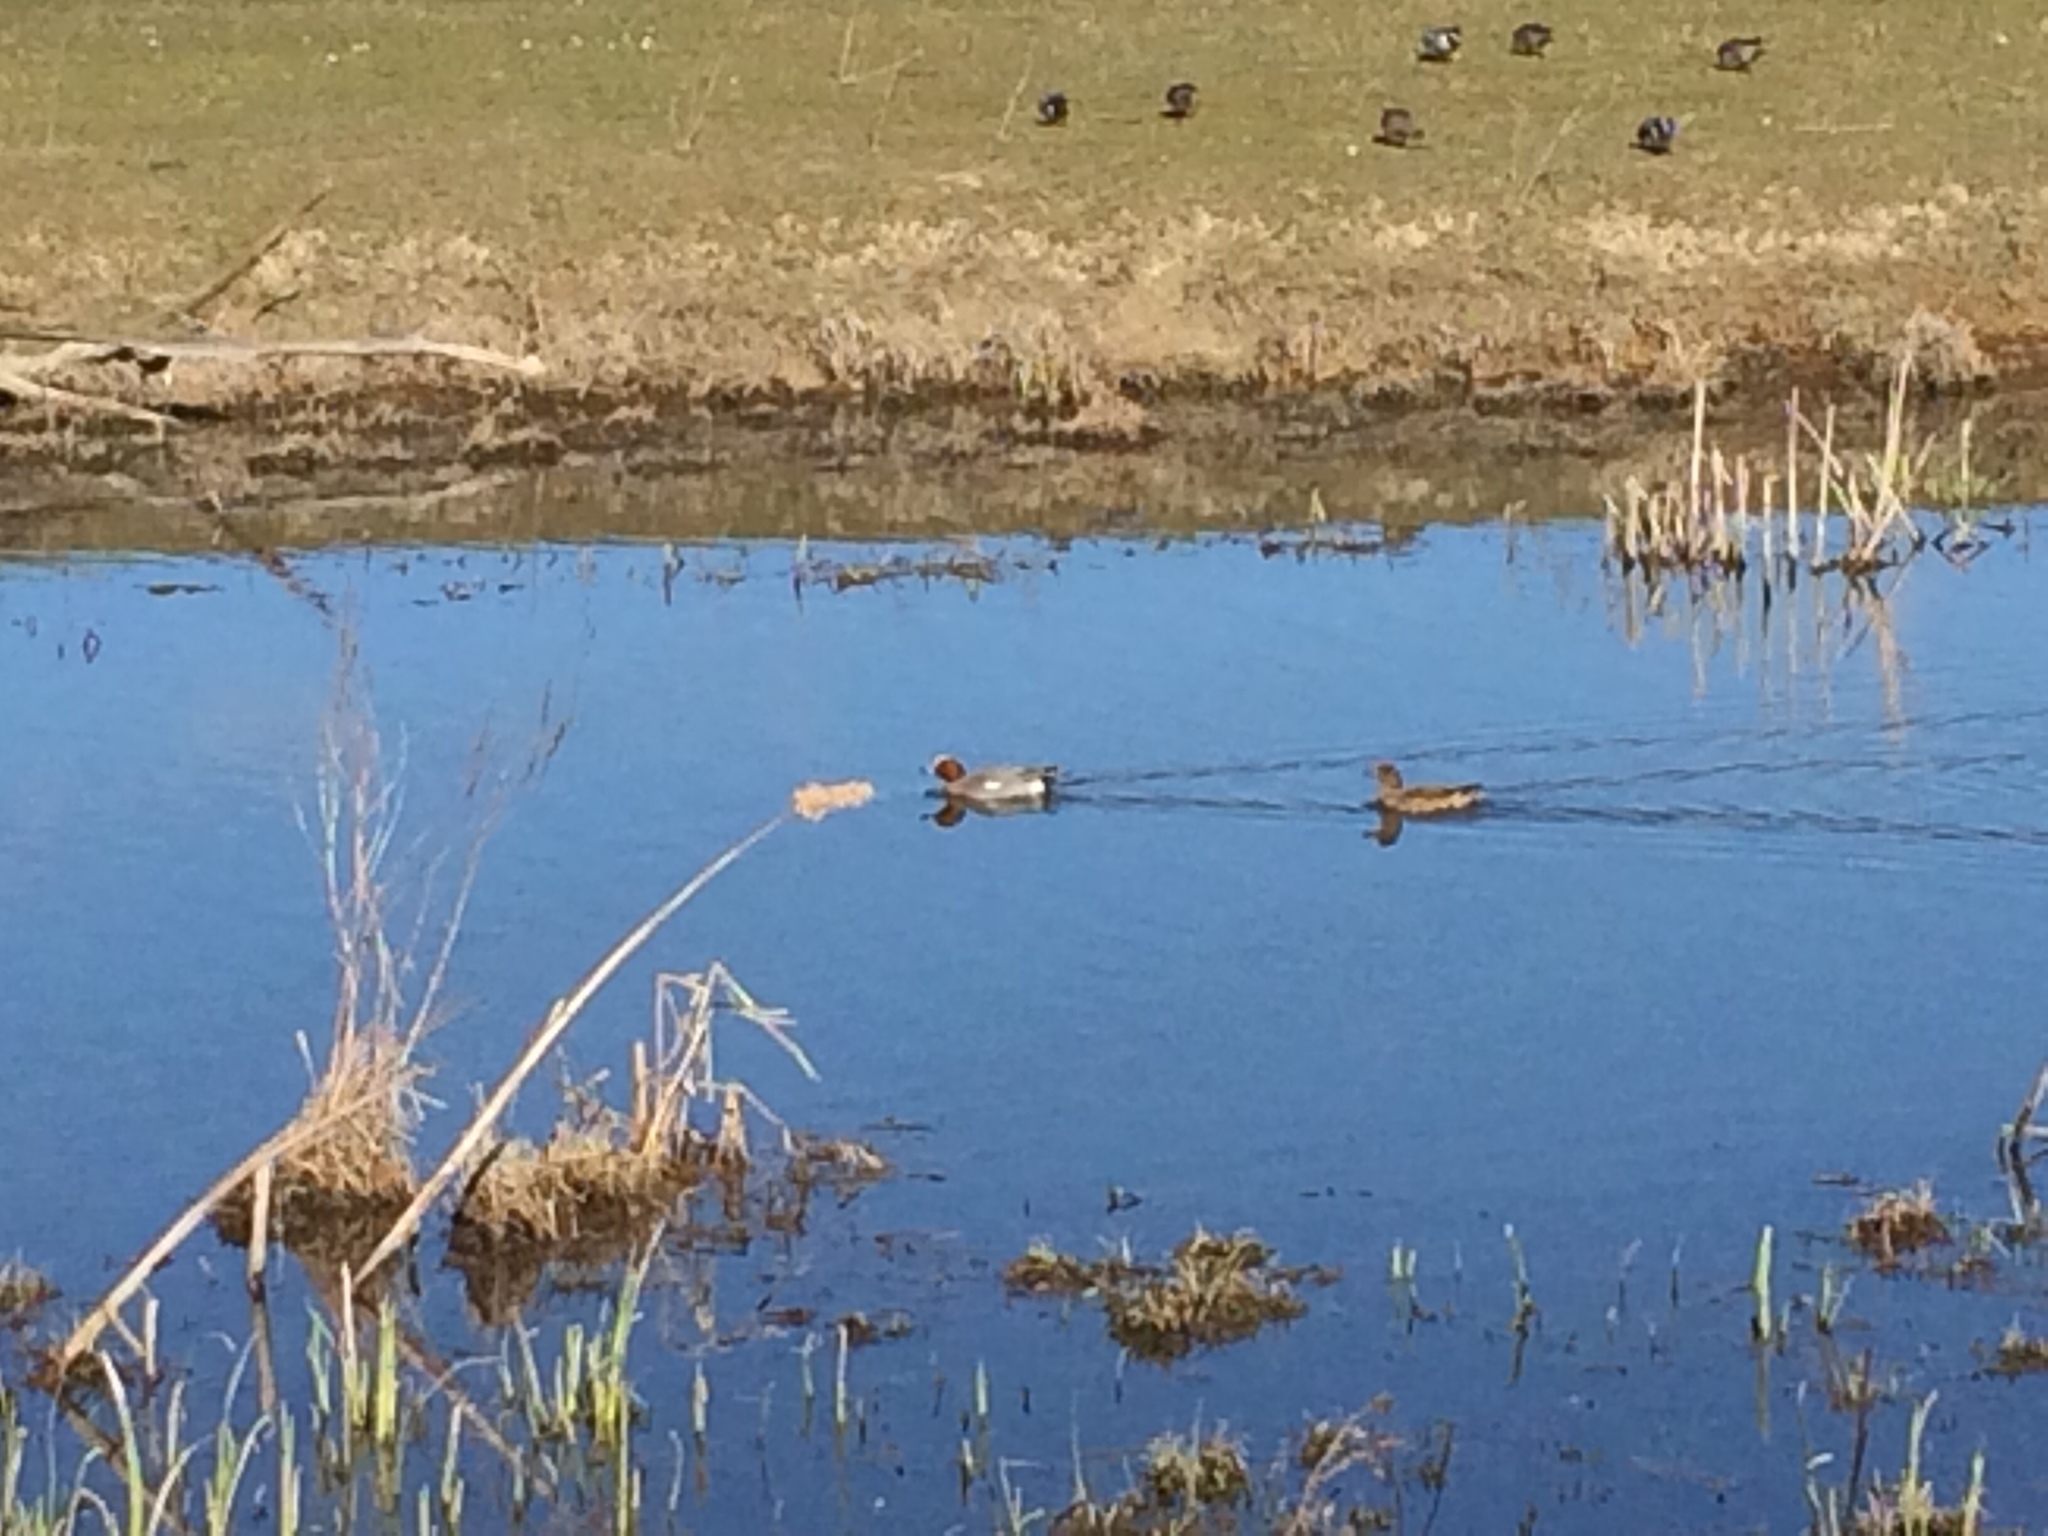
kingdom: Animalia
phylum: Chordata
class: Aves
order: Anseriformes
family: Anatidae
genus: Mareca
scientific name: Mareca penelope
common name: Eurasian wigeon
